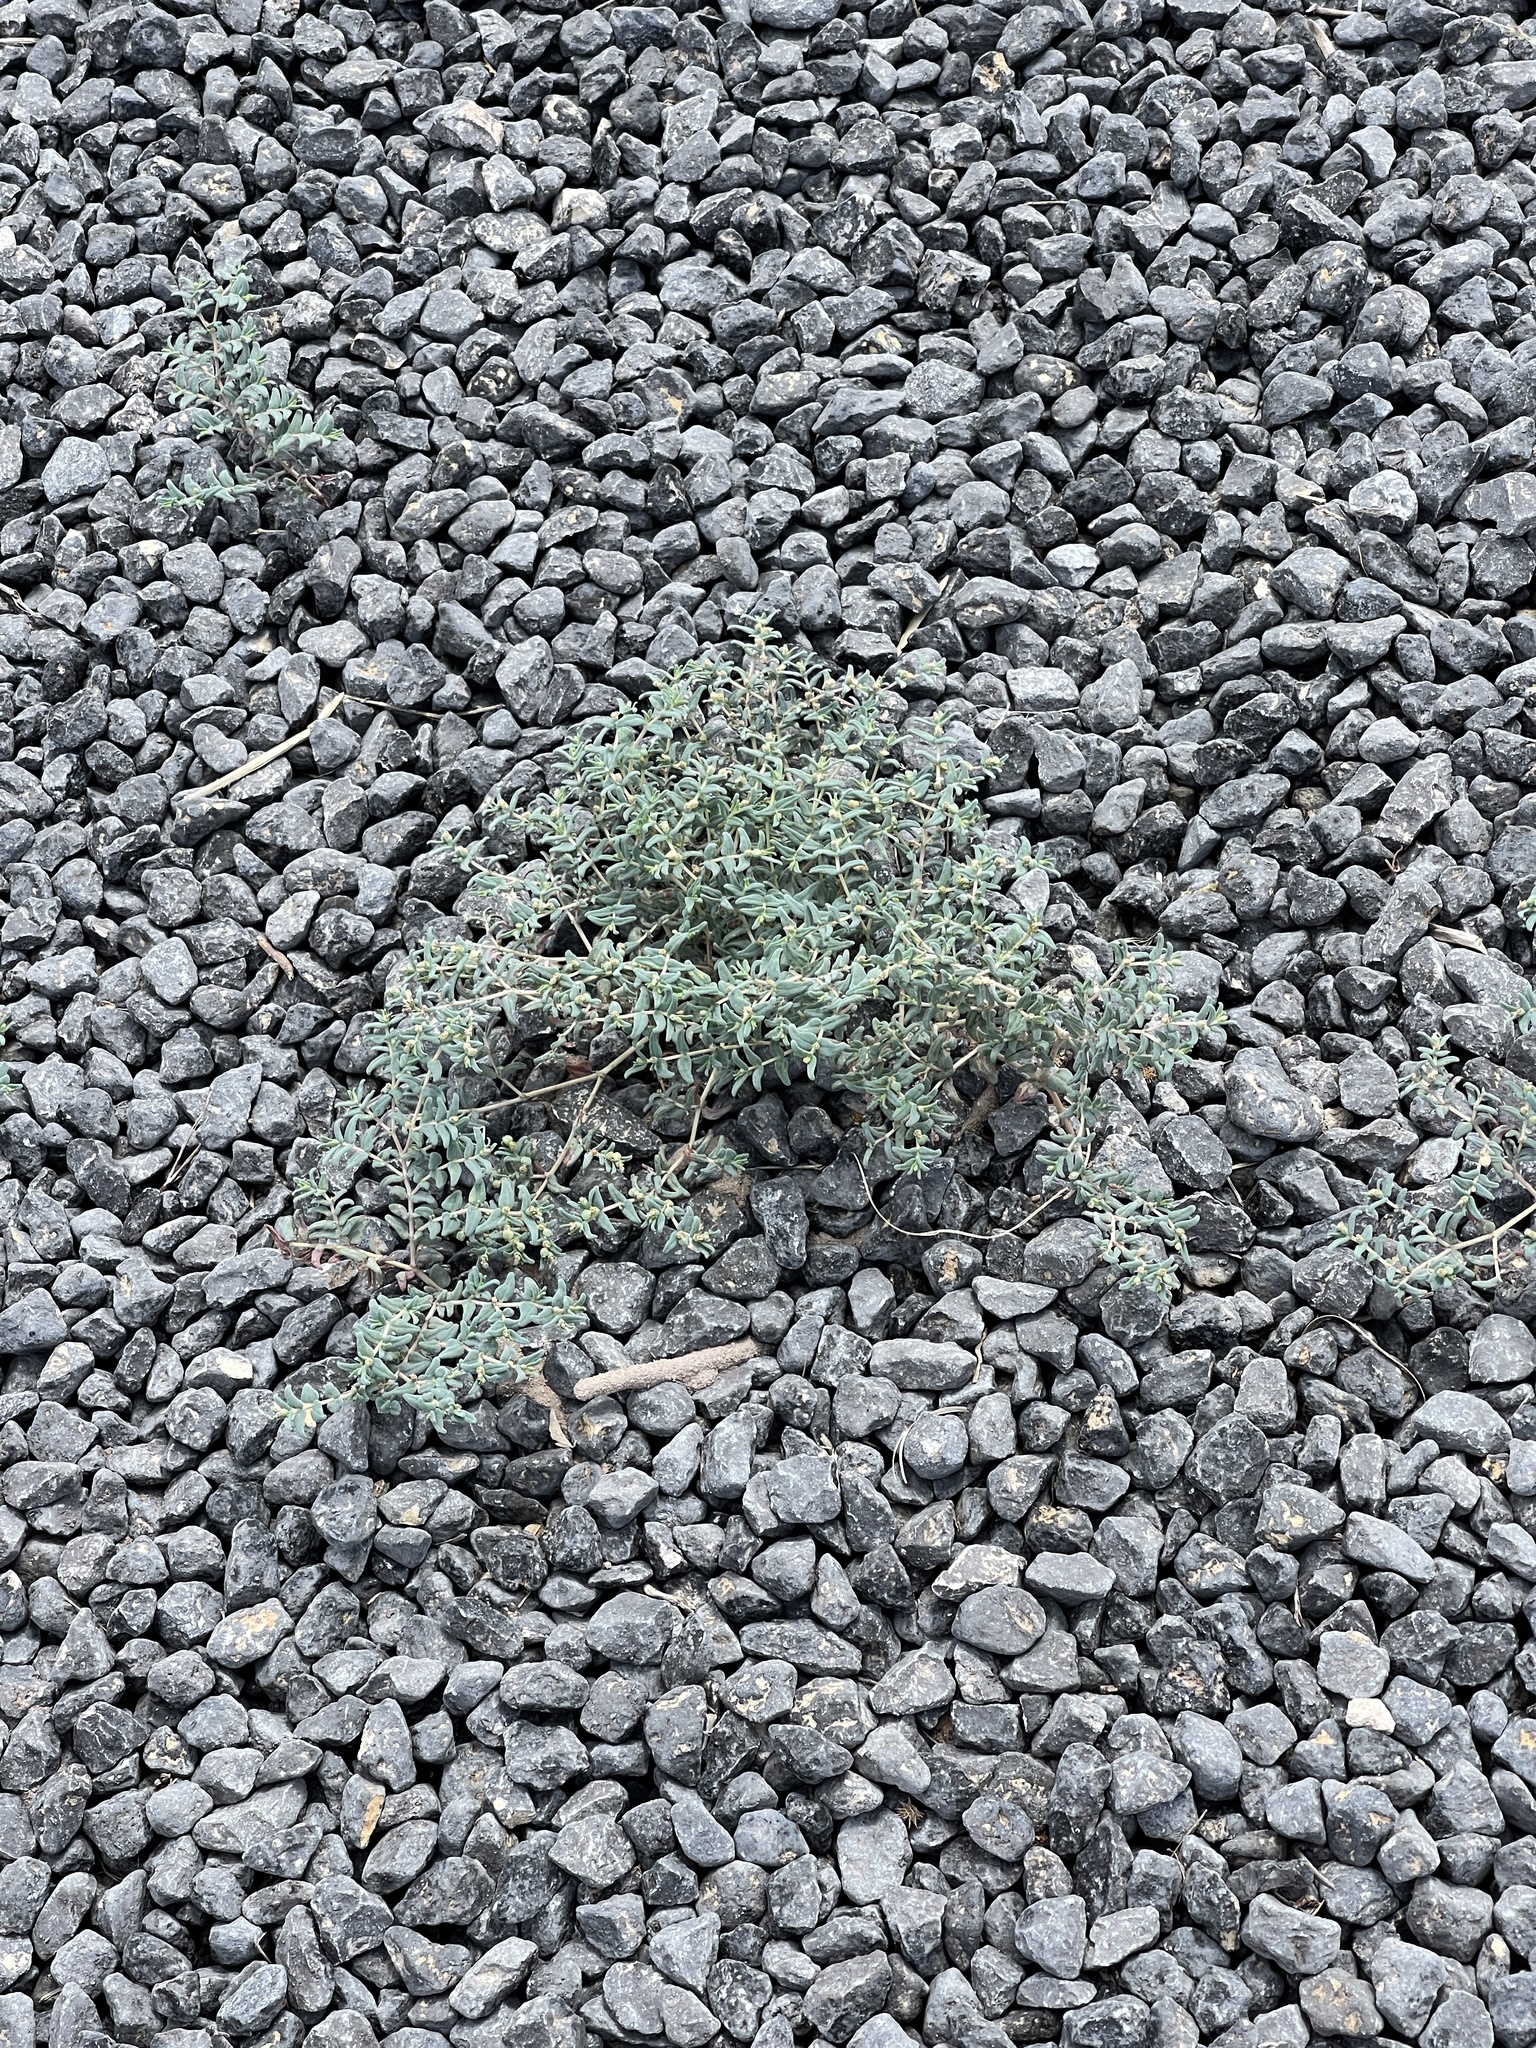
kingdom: Plantae
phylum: Tracheophyta
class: Magnoliopsida
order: Malpighiales
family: Euphorbiaceae
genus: Euphorbia
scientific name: Euphorbia lata
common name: Hoary euphorbia
